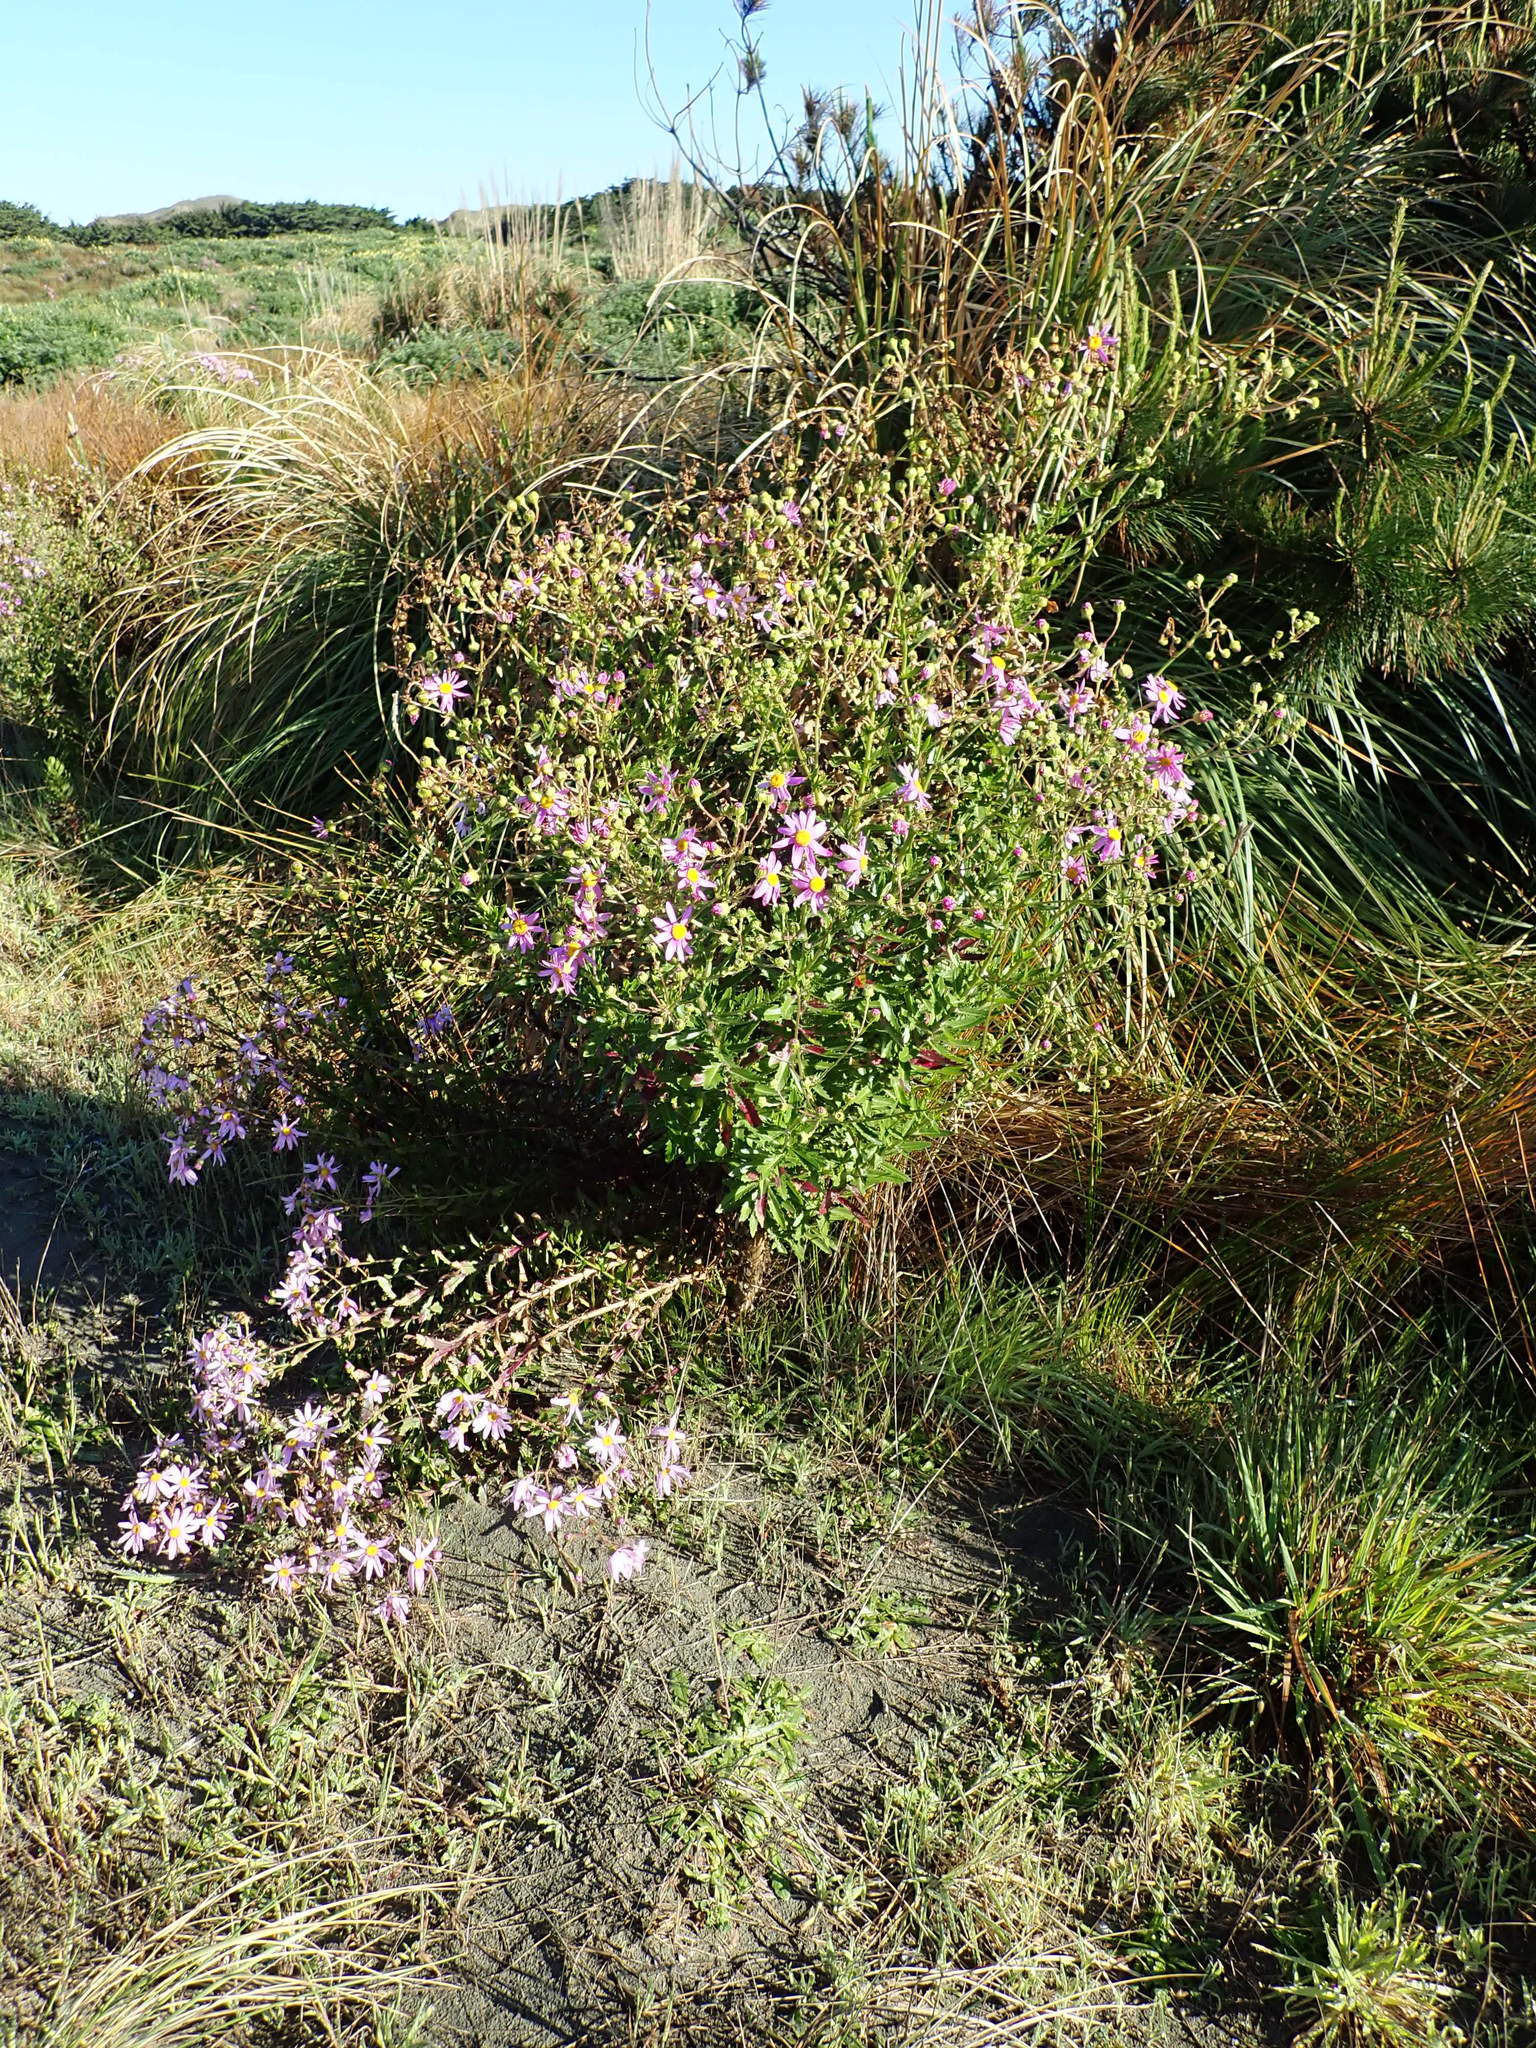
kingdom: Plantae
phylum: Tracheophyta
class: Magnoliopsida
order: Asterales
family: Asteraceae
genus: Senecio
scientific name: Senecio glastifolius
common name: Woad-leaved ragwort
